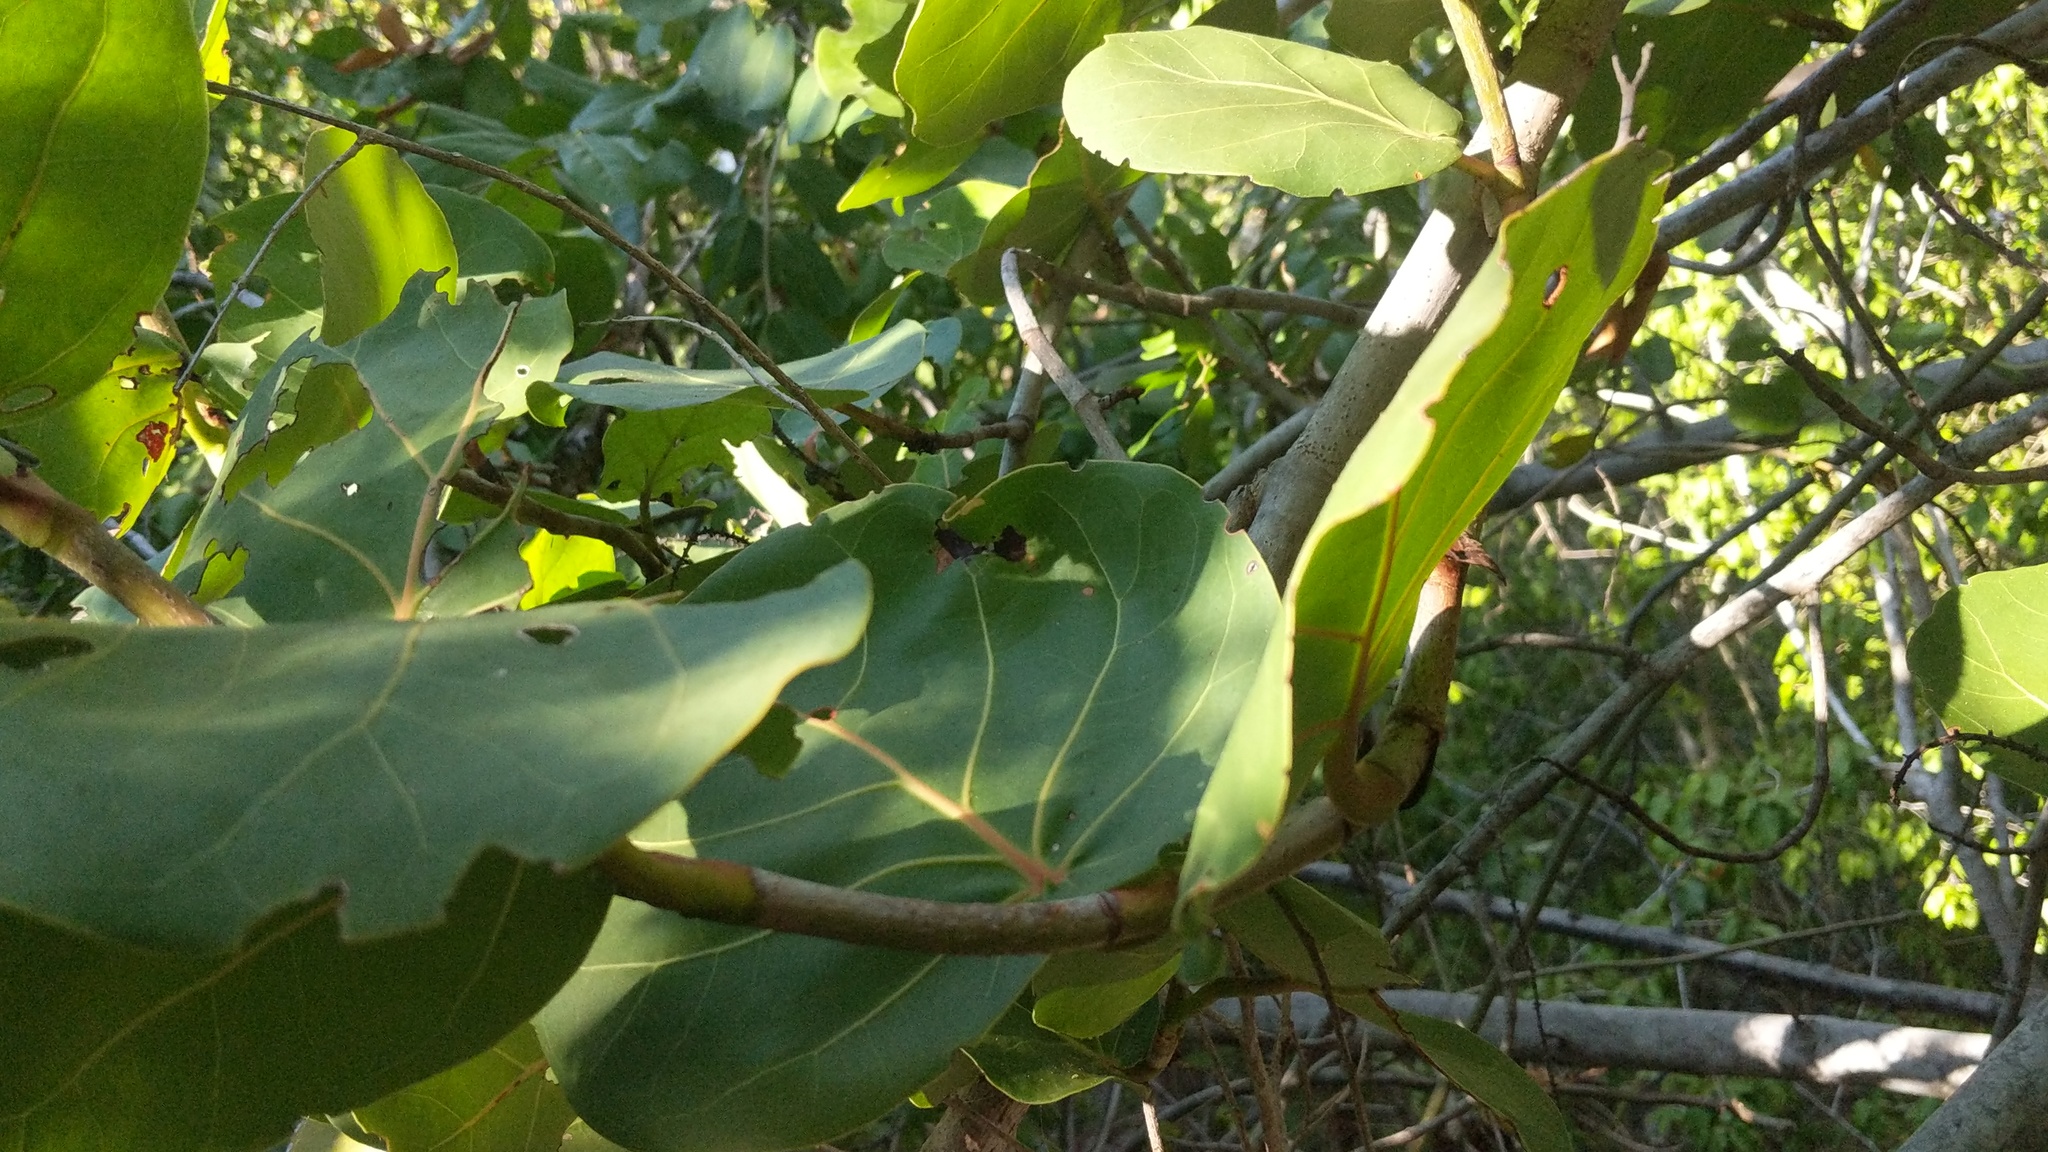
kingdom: Plantae
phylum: Tracheophyta
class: Magnoliopsida
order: Caryophyllales
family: Polygonaceae
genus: Coccoloba
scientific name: Coccoloba uvifera
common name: Seagrape
